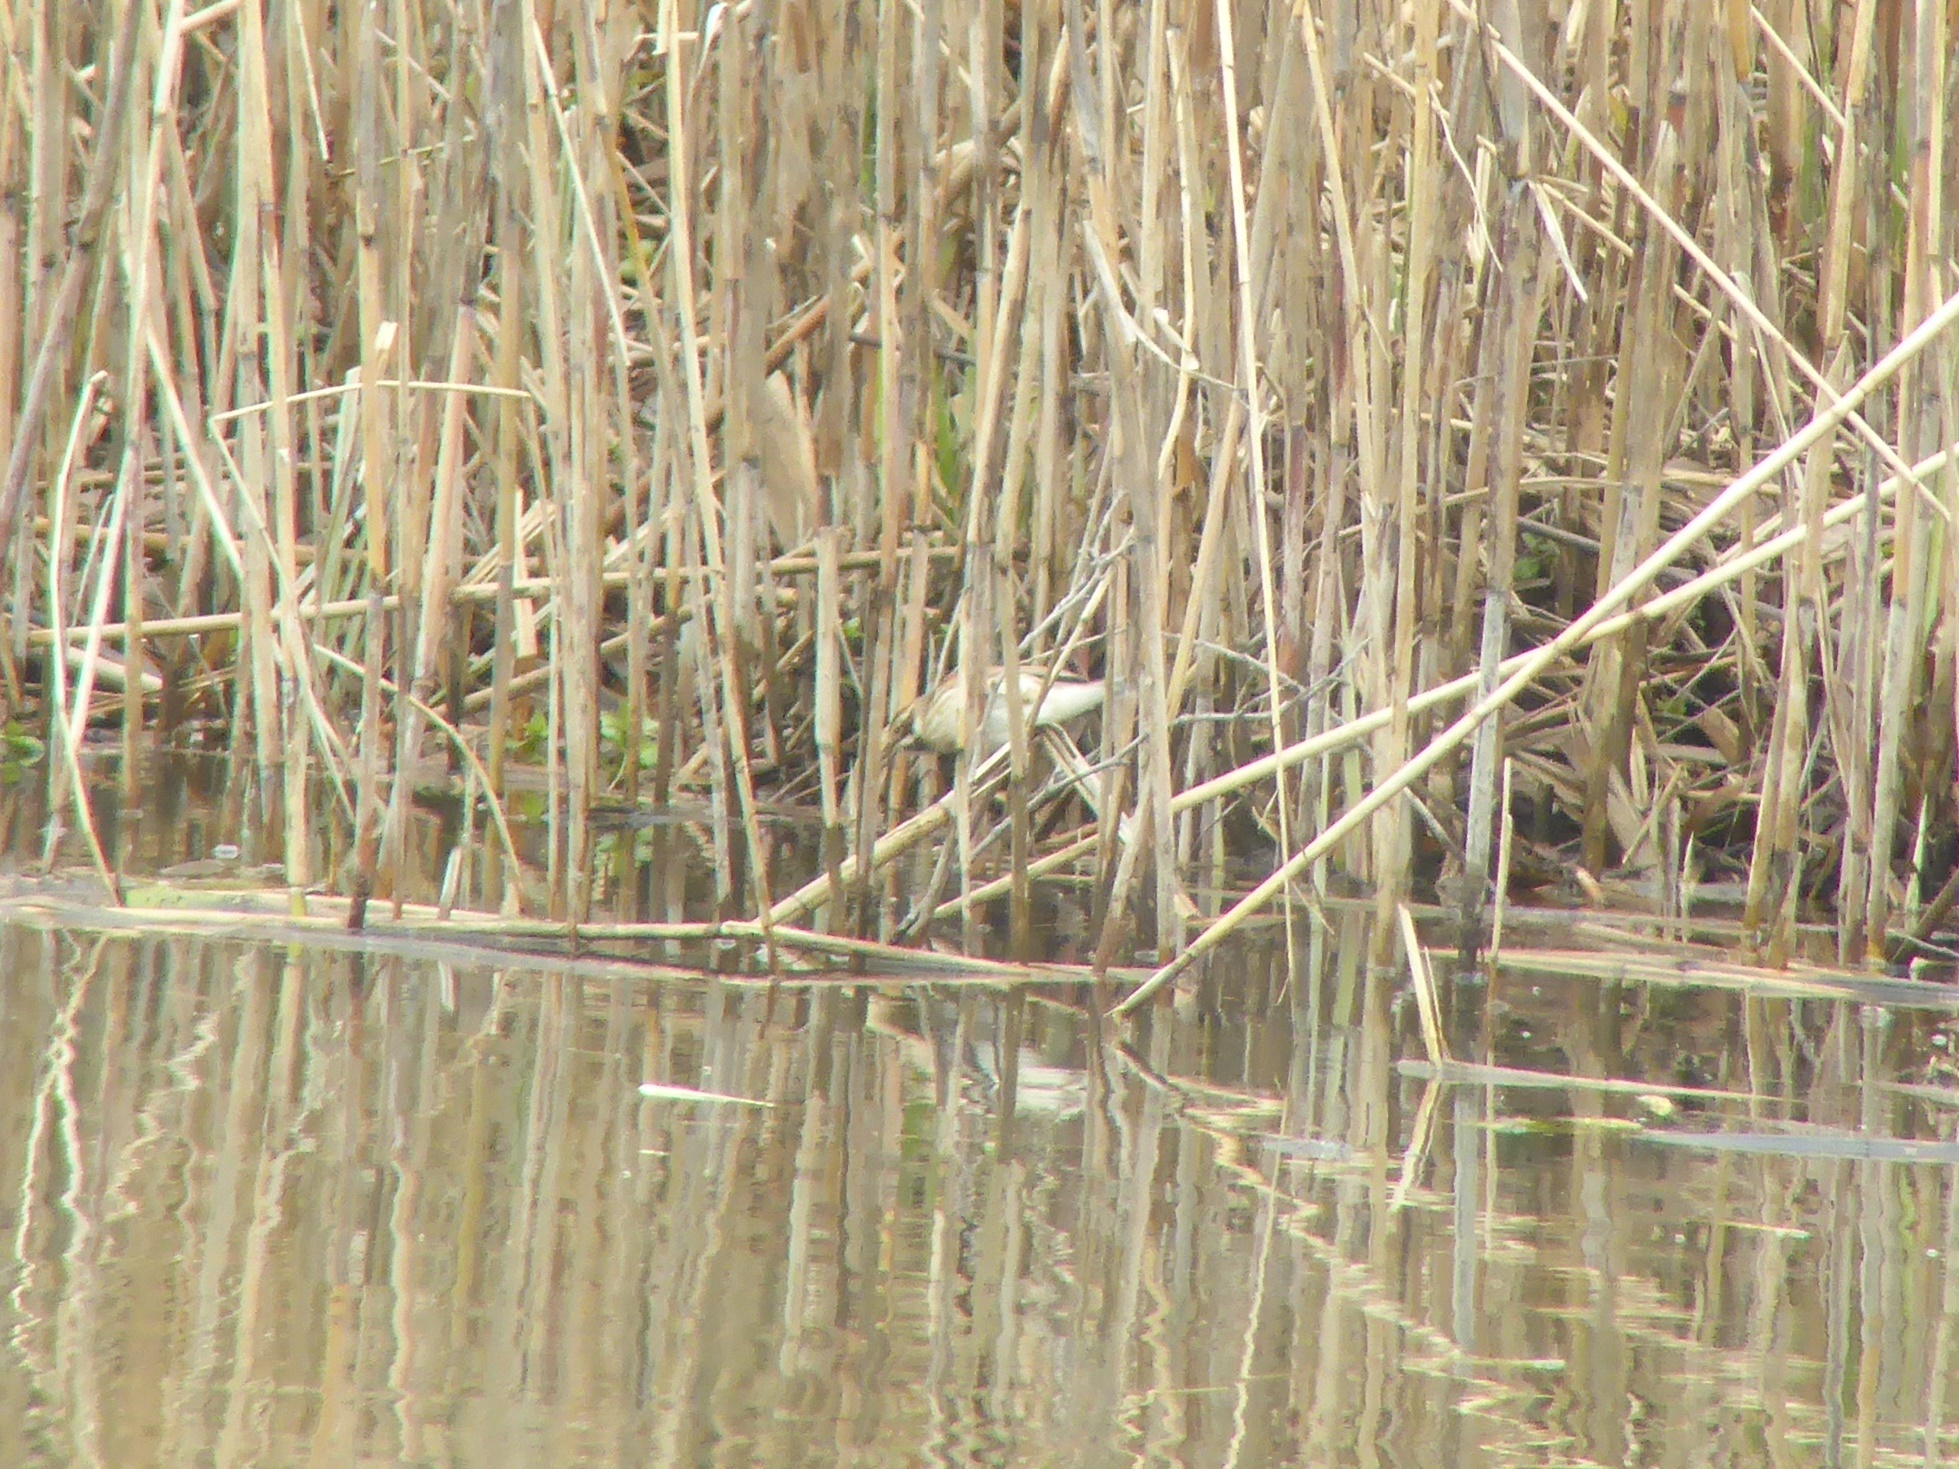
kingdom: Animalia
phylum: Chordata
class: Aves
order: Passeriformes
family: Emberizidae
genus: Emberiza
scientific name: Emberiza schoeniclus
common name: Reed bunting
